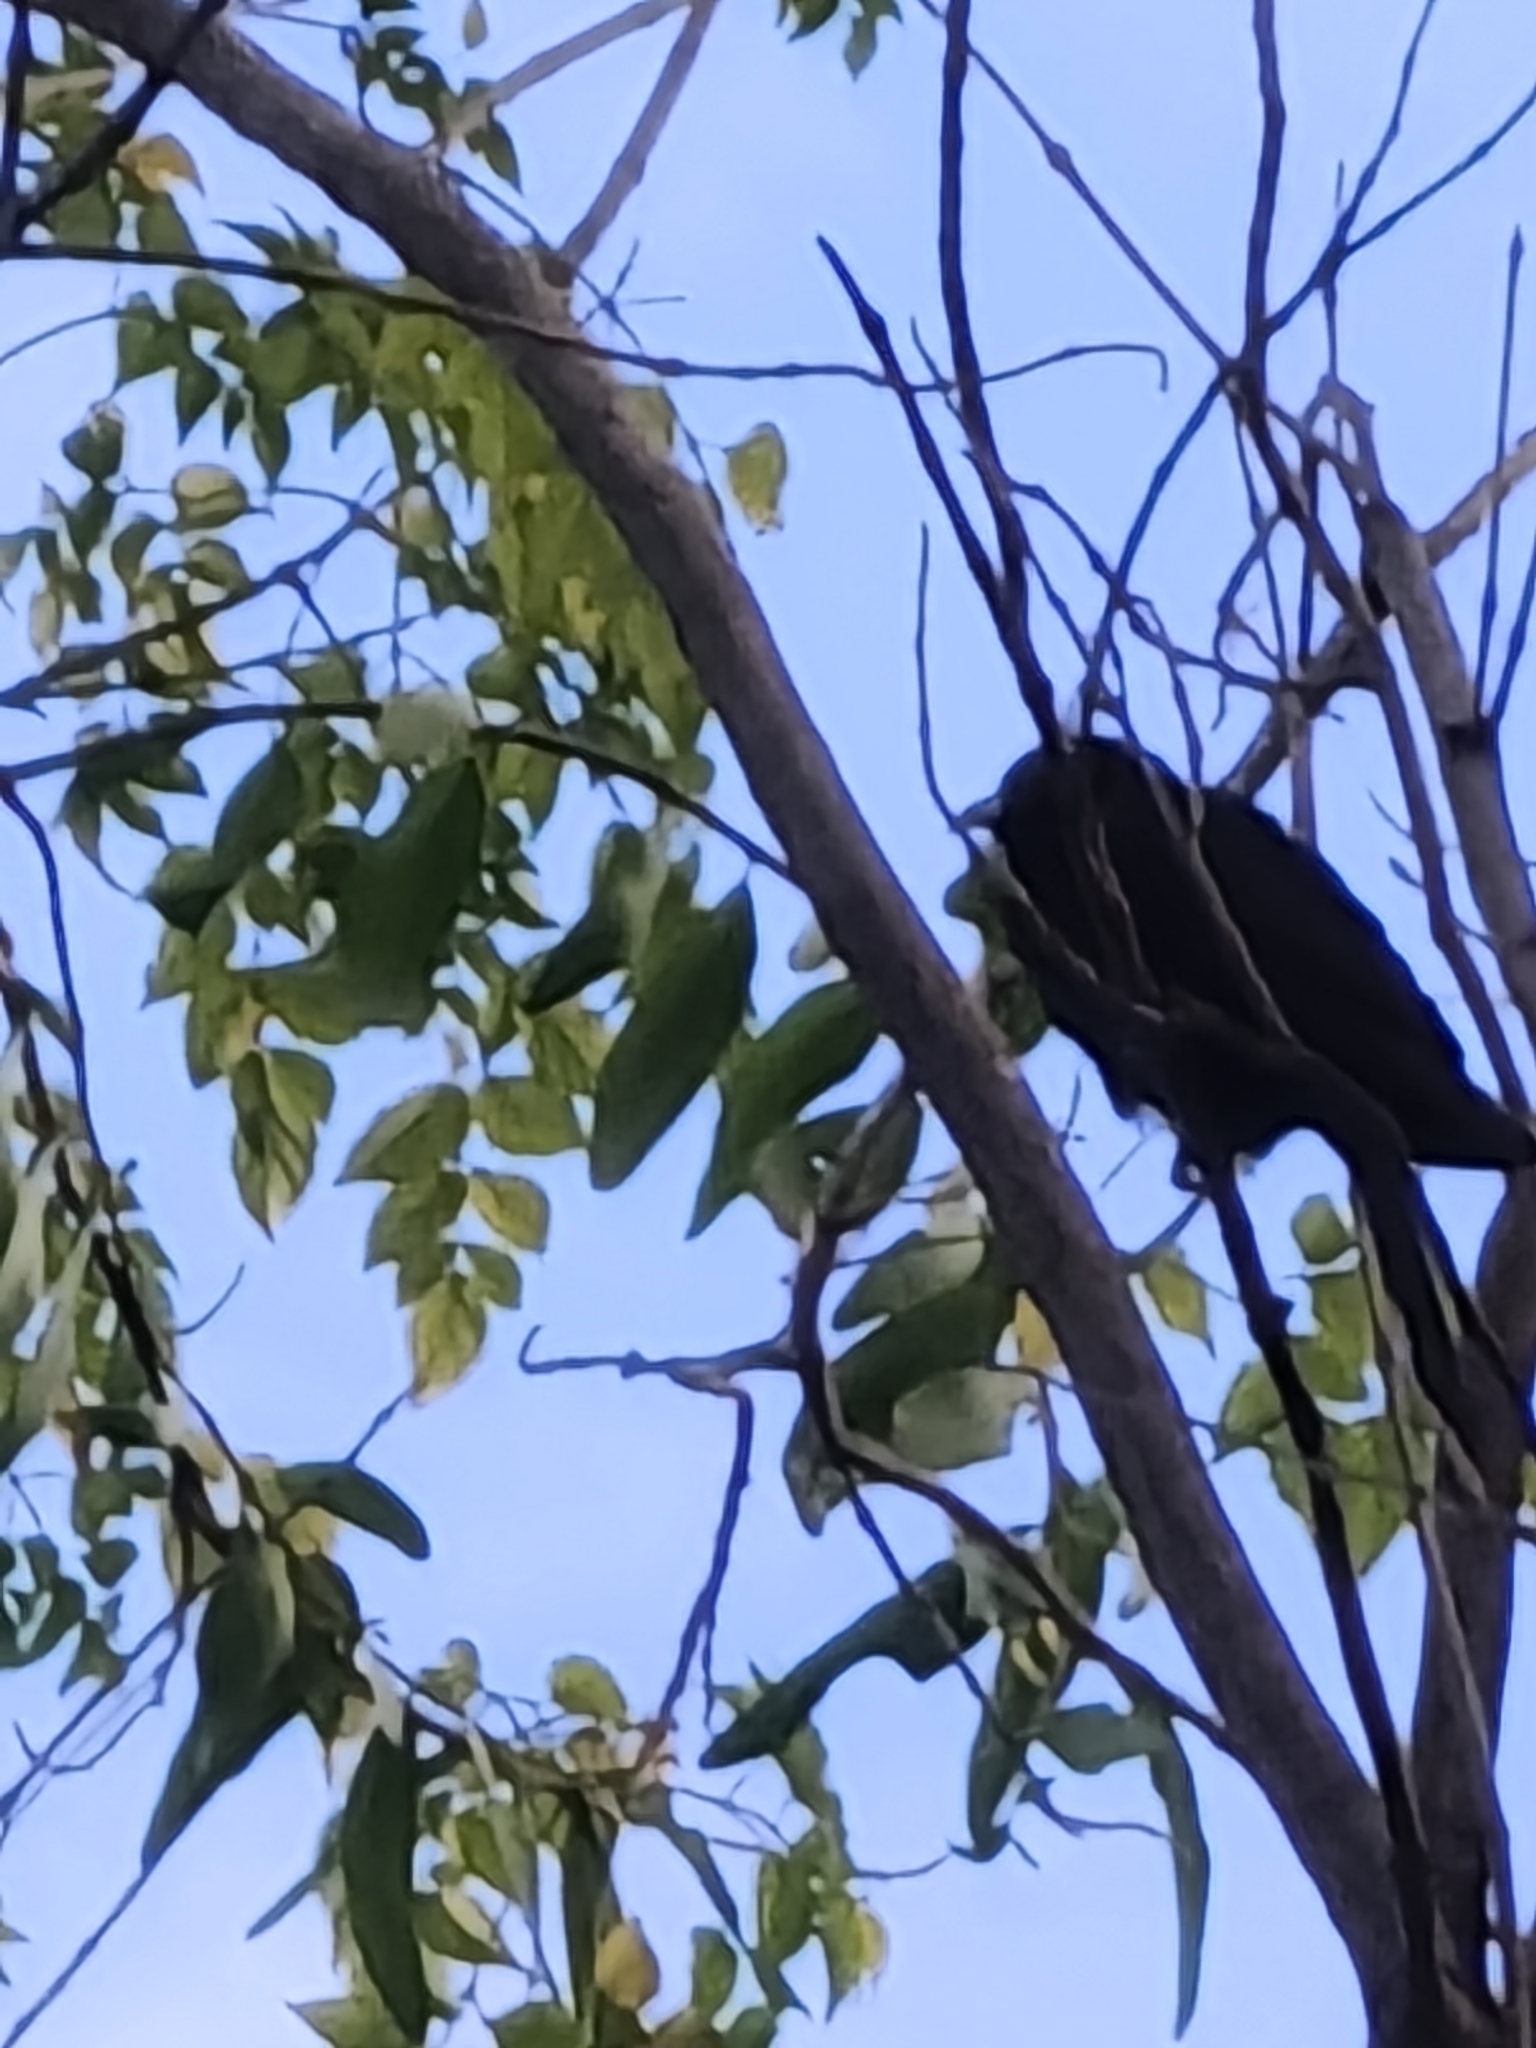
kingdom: Animalia
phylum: Chordata
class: Aves
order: Cuculiformes
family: Cuculidae
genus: Eudynamys
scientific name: Eudynamys scolopaceus
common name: Asian koel
